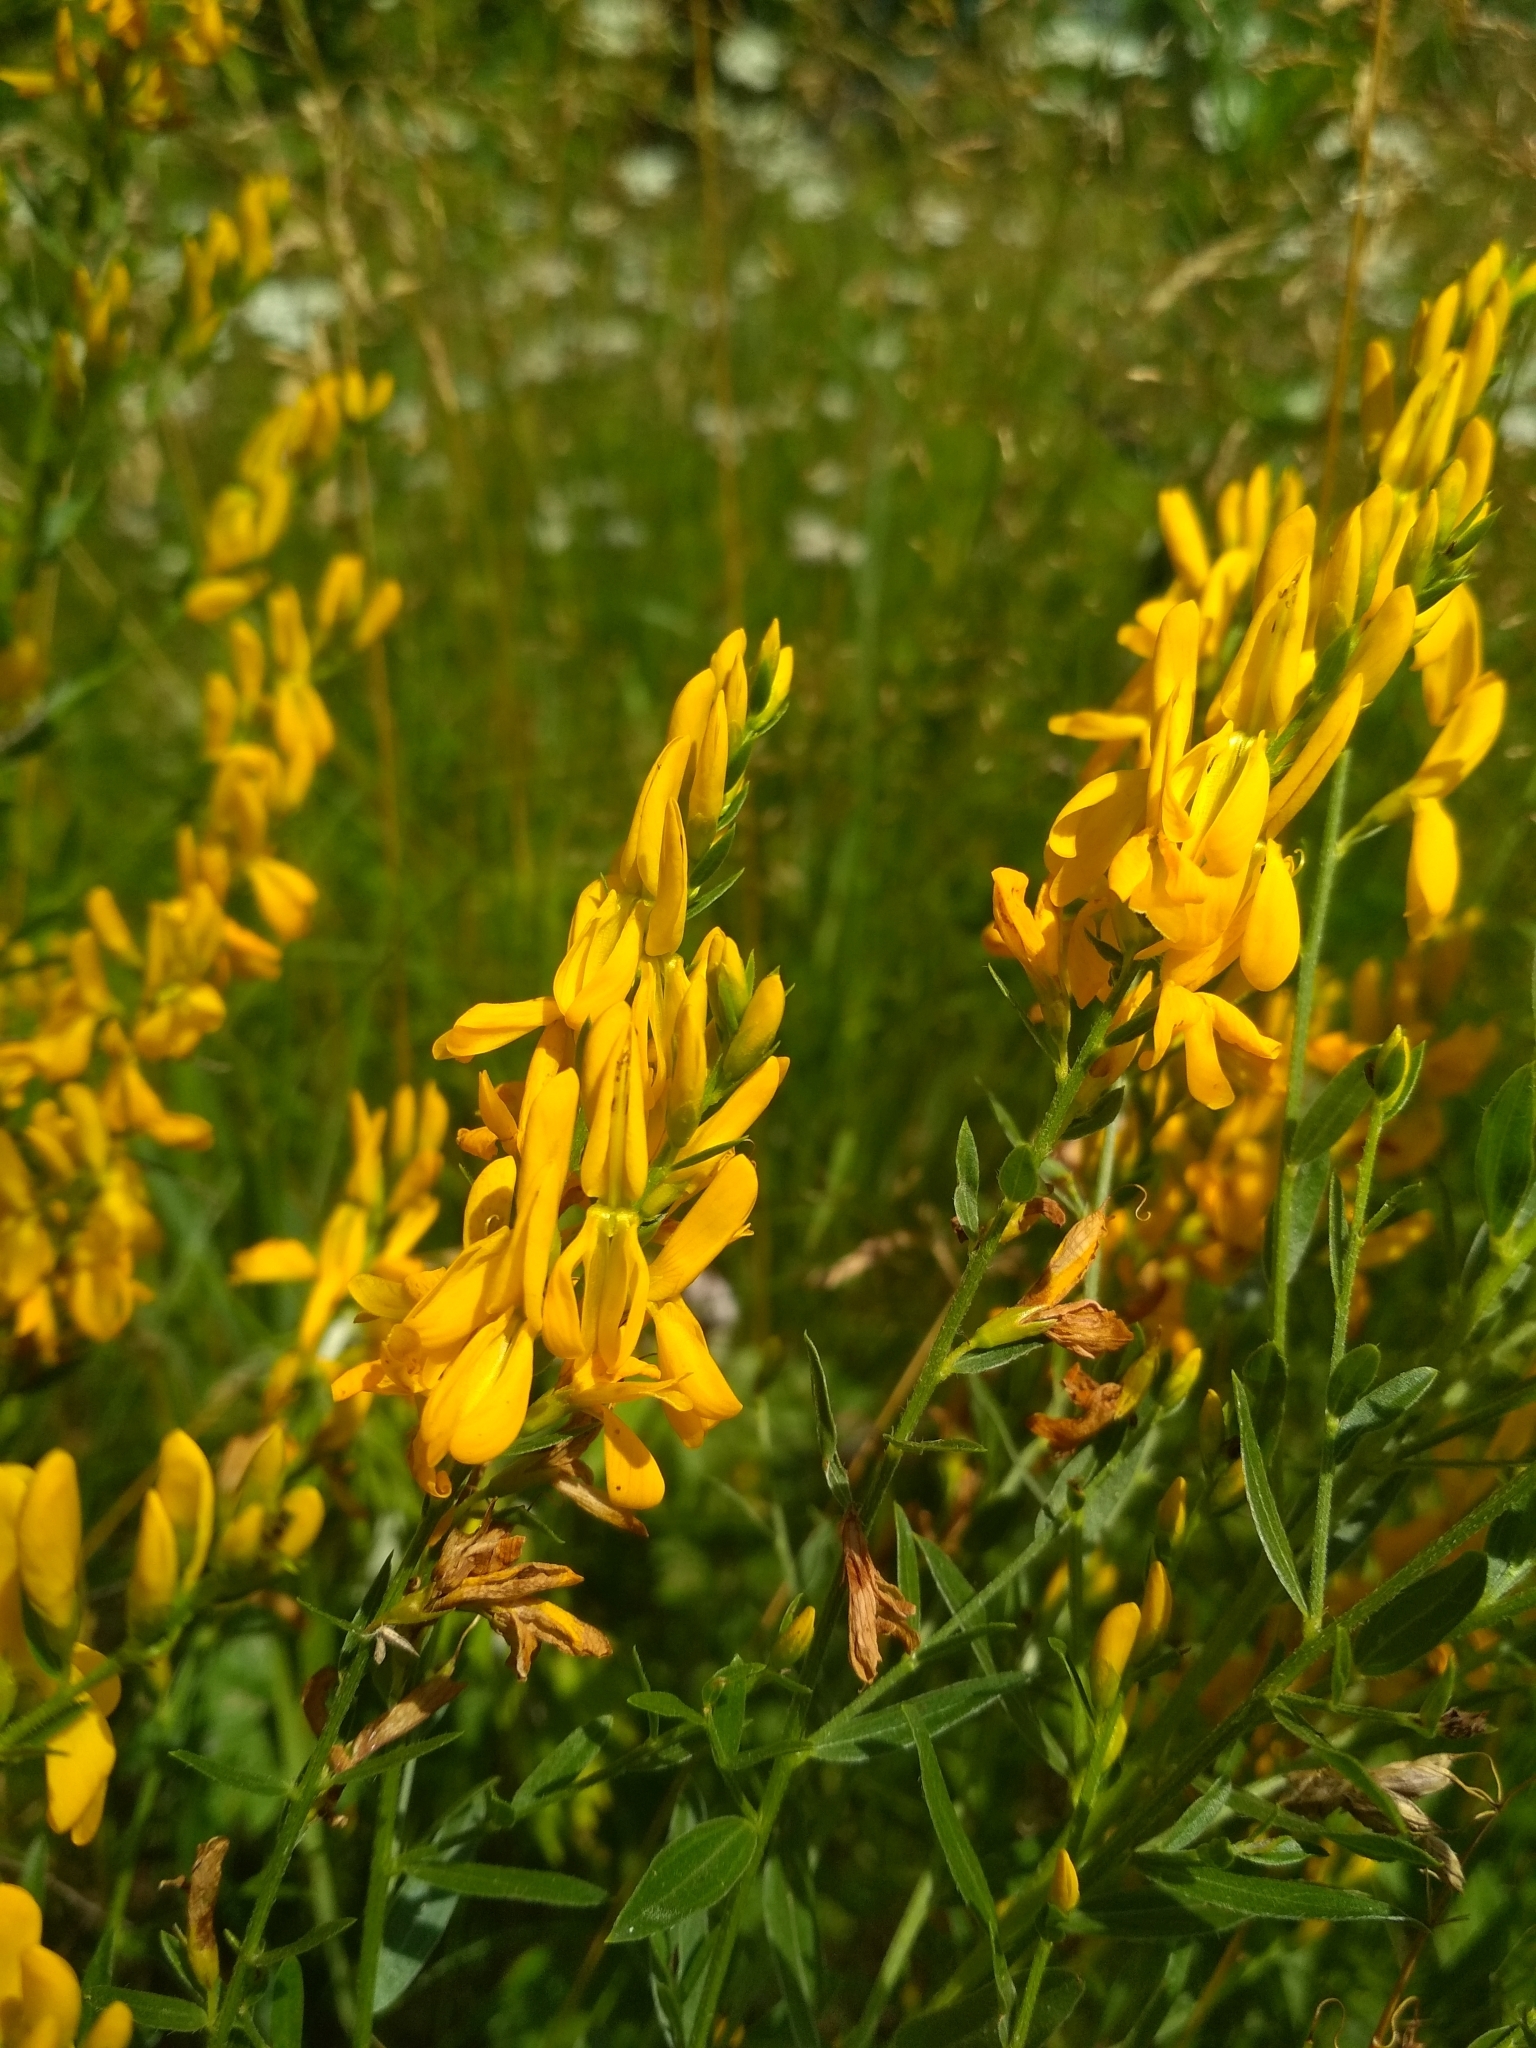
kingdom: Plantae
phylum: Tracheophyta
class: Magnoliopsida
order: Fabales
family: Fabaceae
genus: Genista
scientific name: Genista tinctoria
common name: Dyer's greenweed
